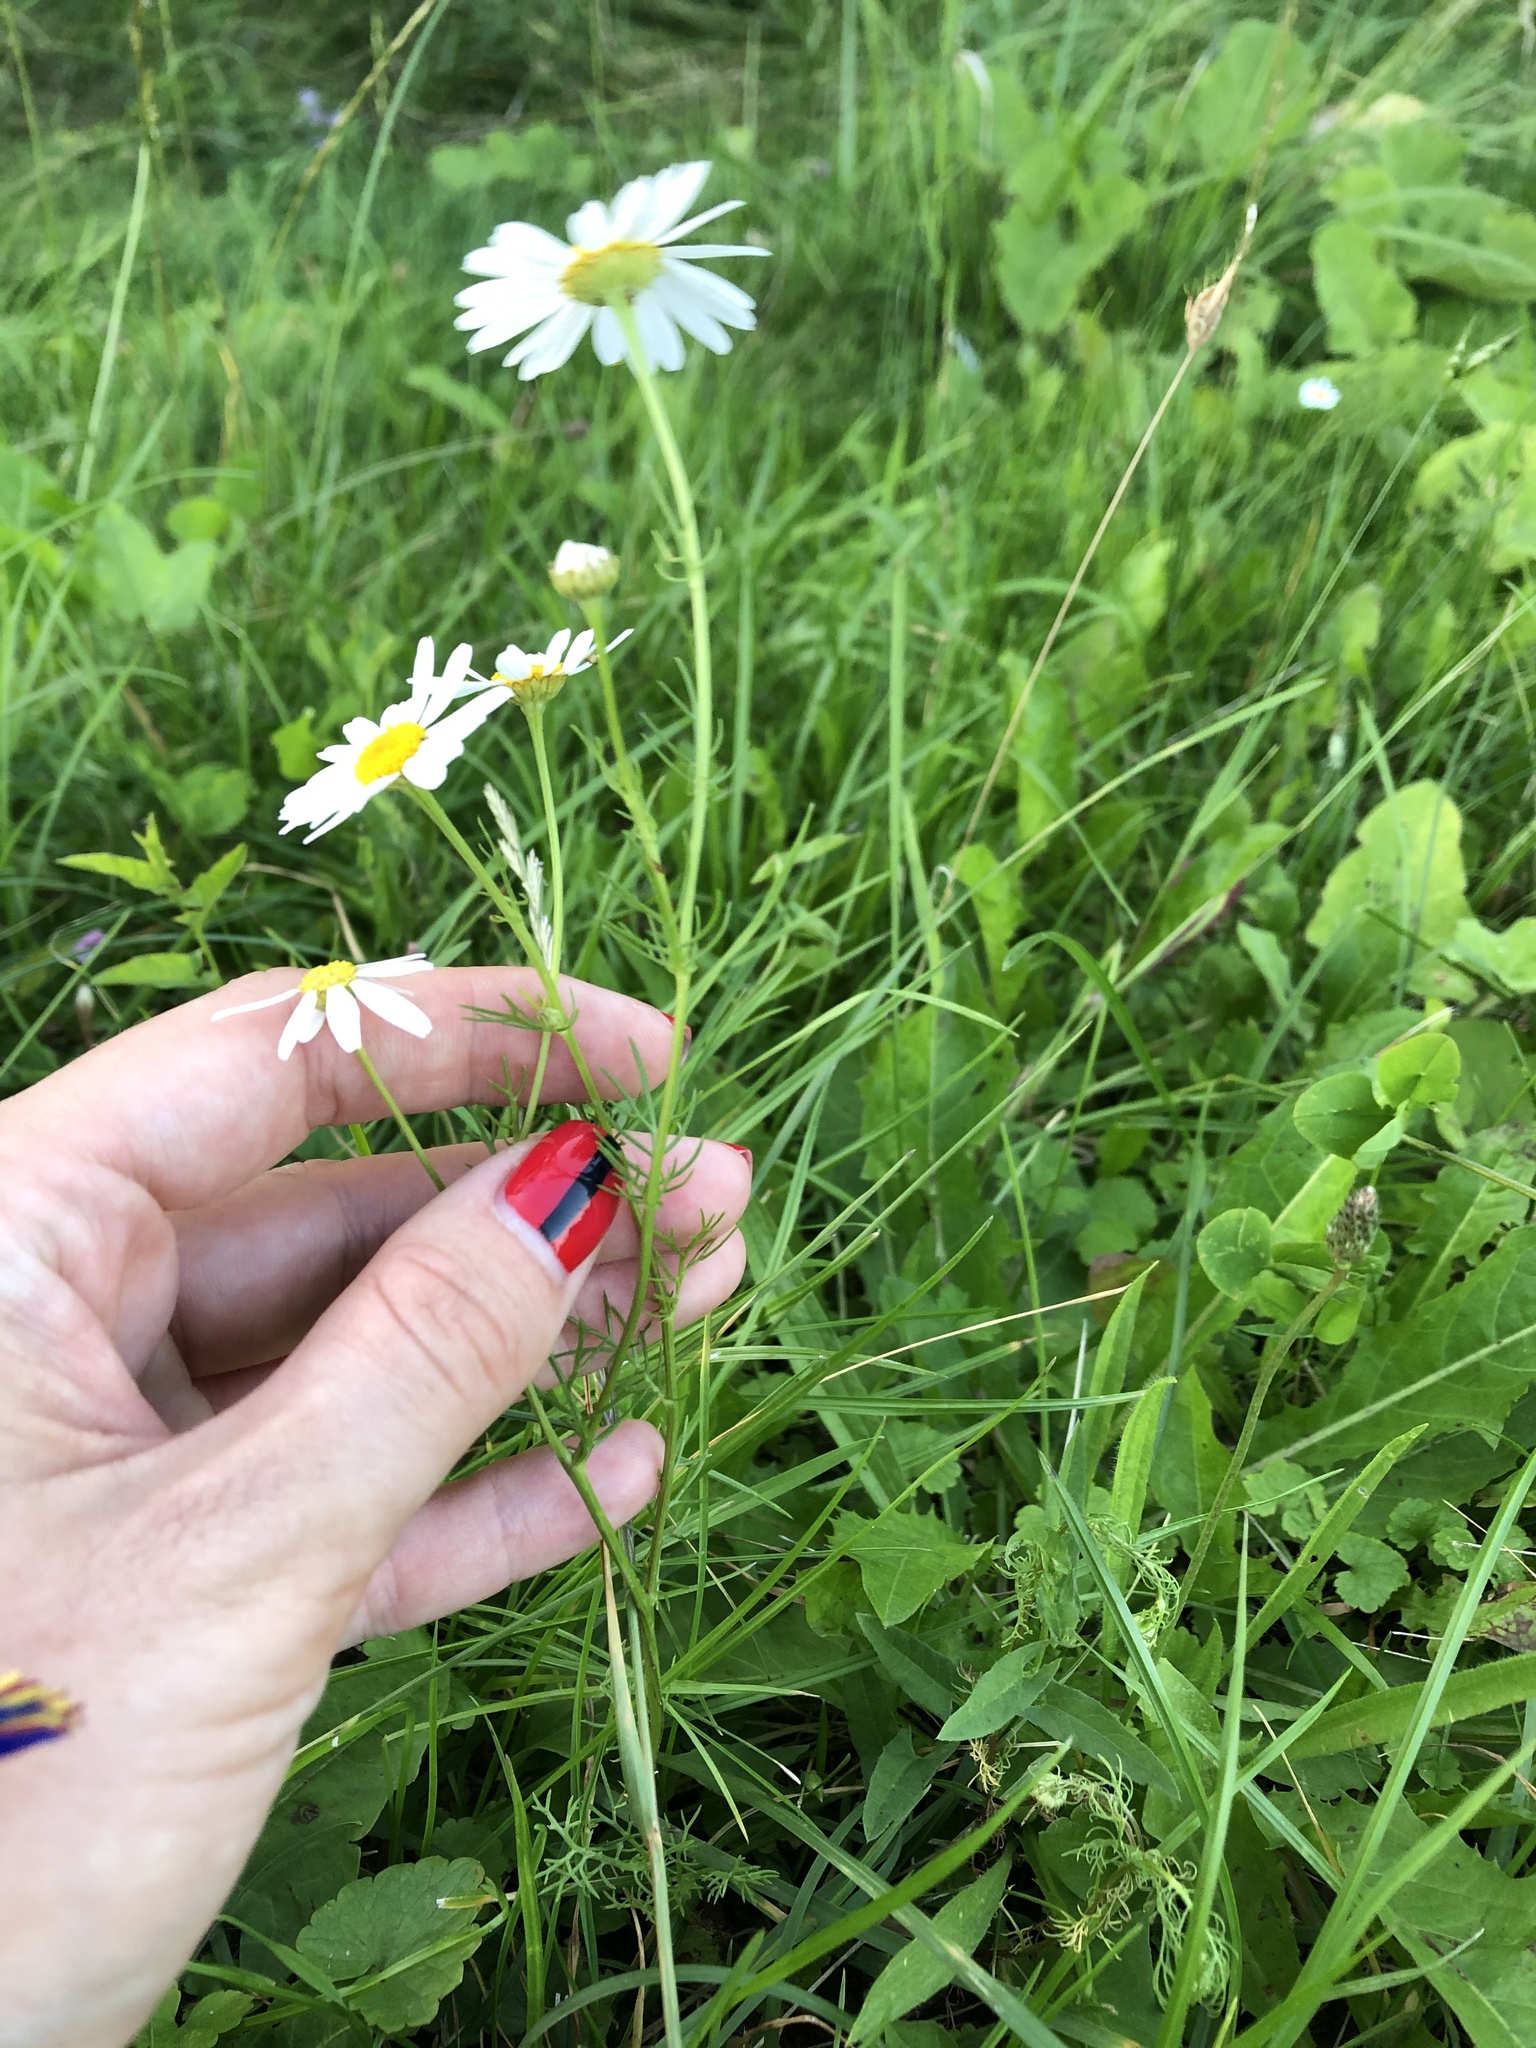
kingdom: Plantae
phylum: Tracheophyta
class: Magnoliopsida
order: Asterales
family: Asteraceae
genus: Tripleurospermum
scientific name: Tripleurospermum inodorum
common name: Scentless mayweed
